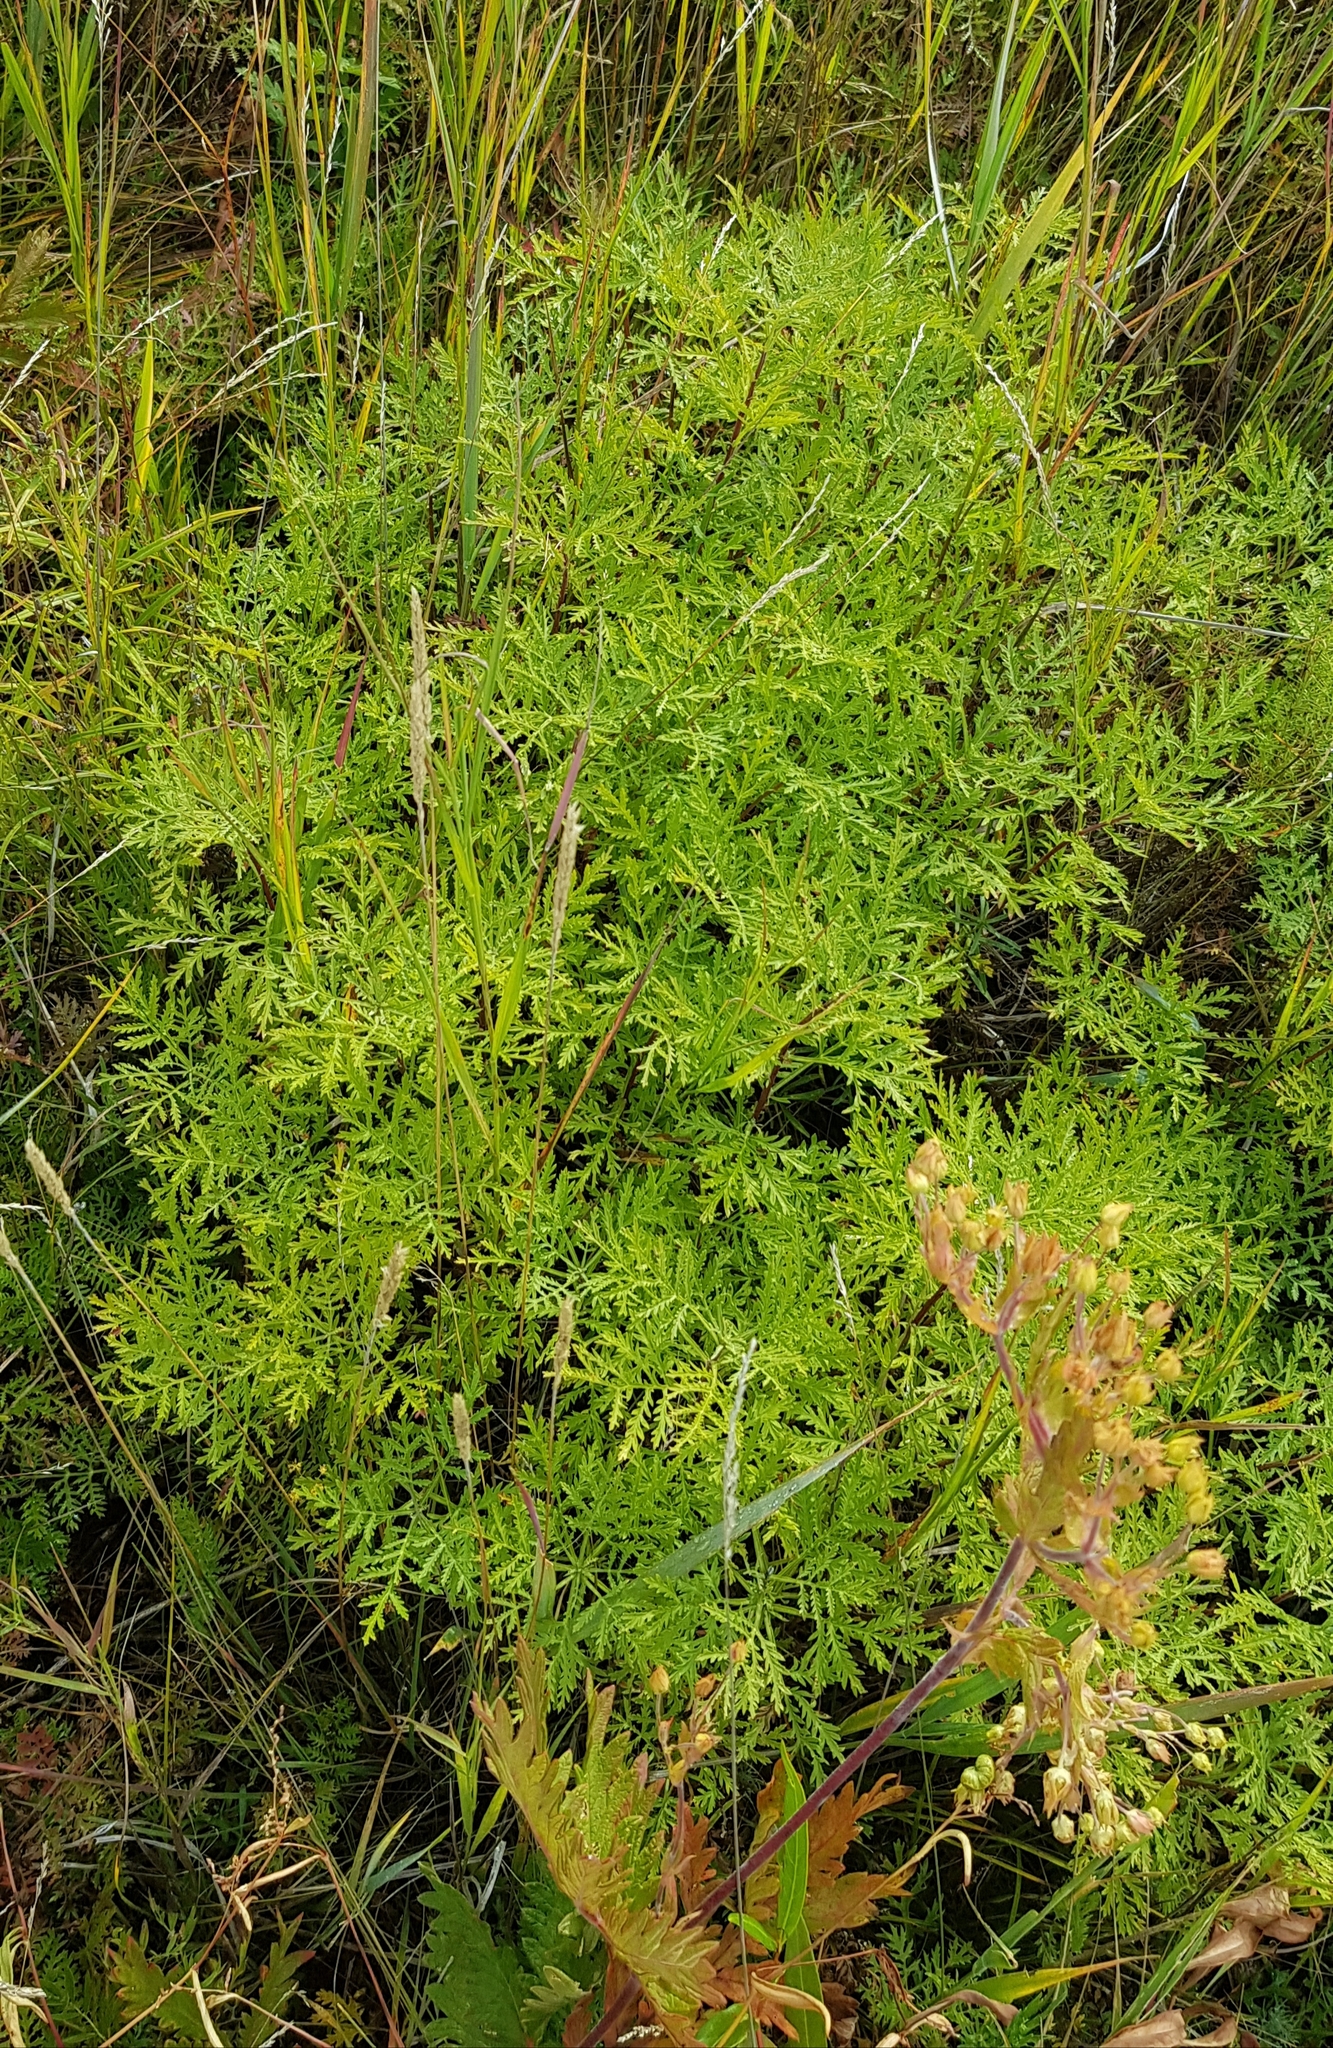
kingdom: Plantae
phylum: Tracheophyta
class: Magnoliopsida
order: Asterales
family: Asteraceae
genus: Artemisia
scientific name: Artemisia gmelinii
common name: Gmelin's wormwood
